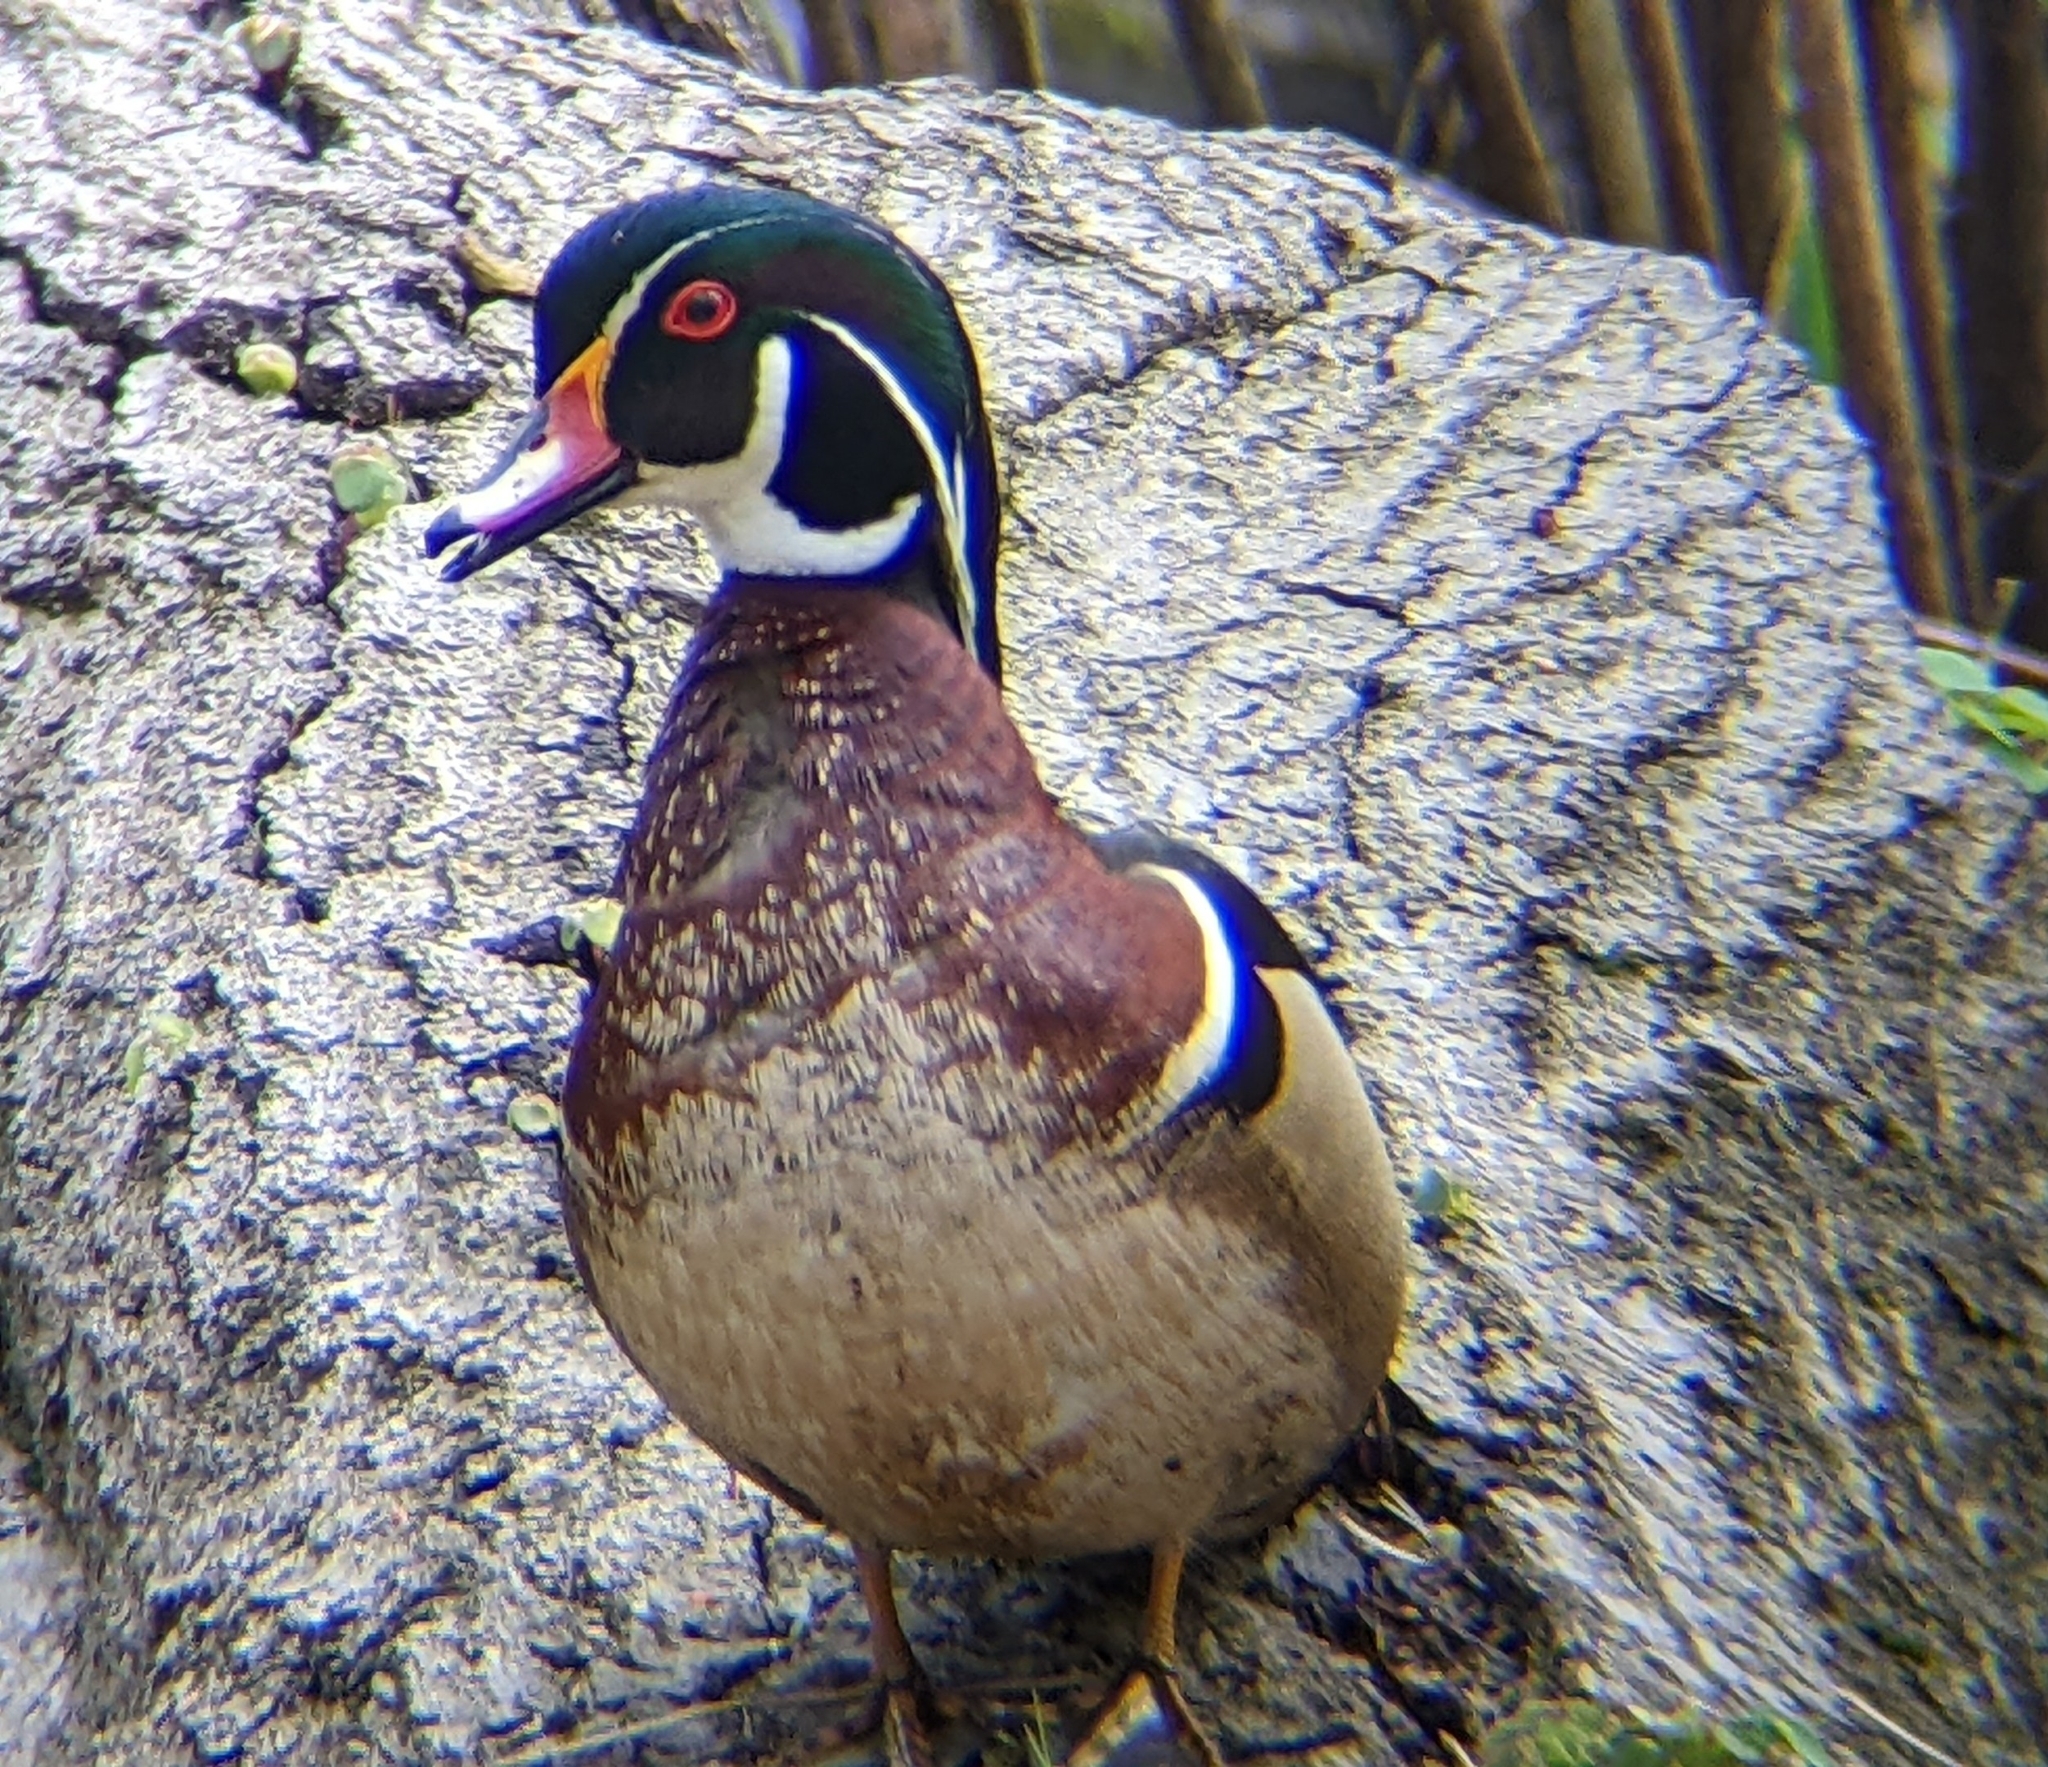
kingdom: Animalia
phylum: Chordata
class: Aves
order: Anseriformes
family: Anatidae
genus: Aix
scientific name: Aix sponsa
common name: Wood duck
